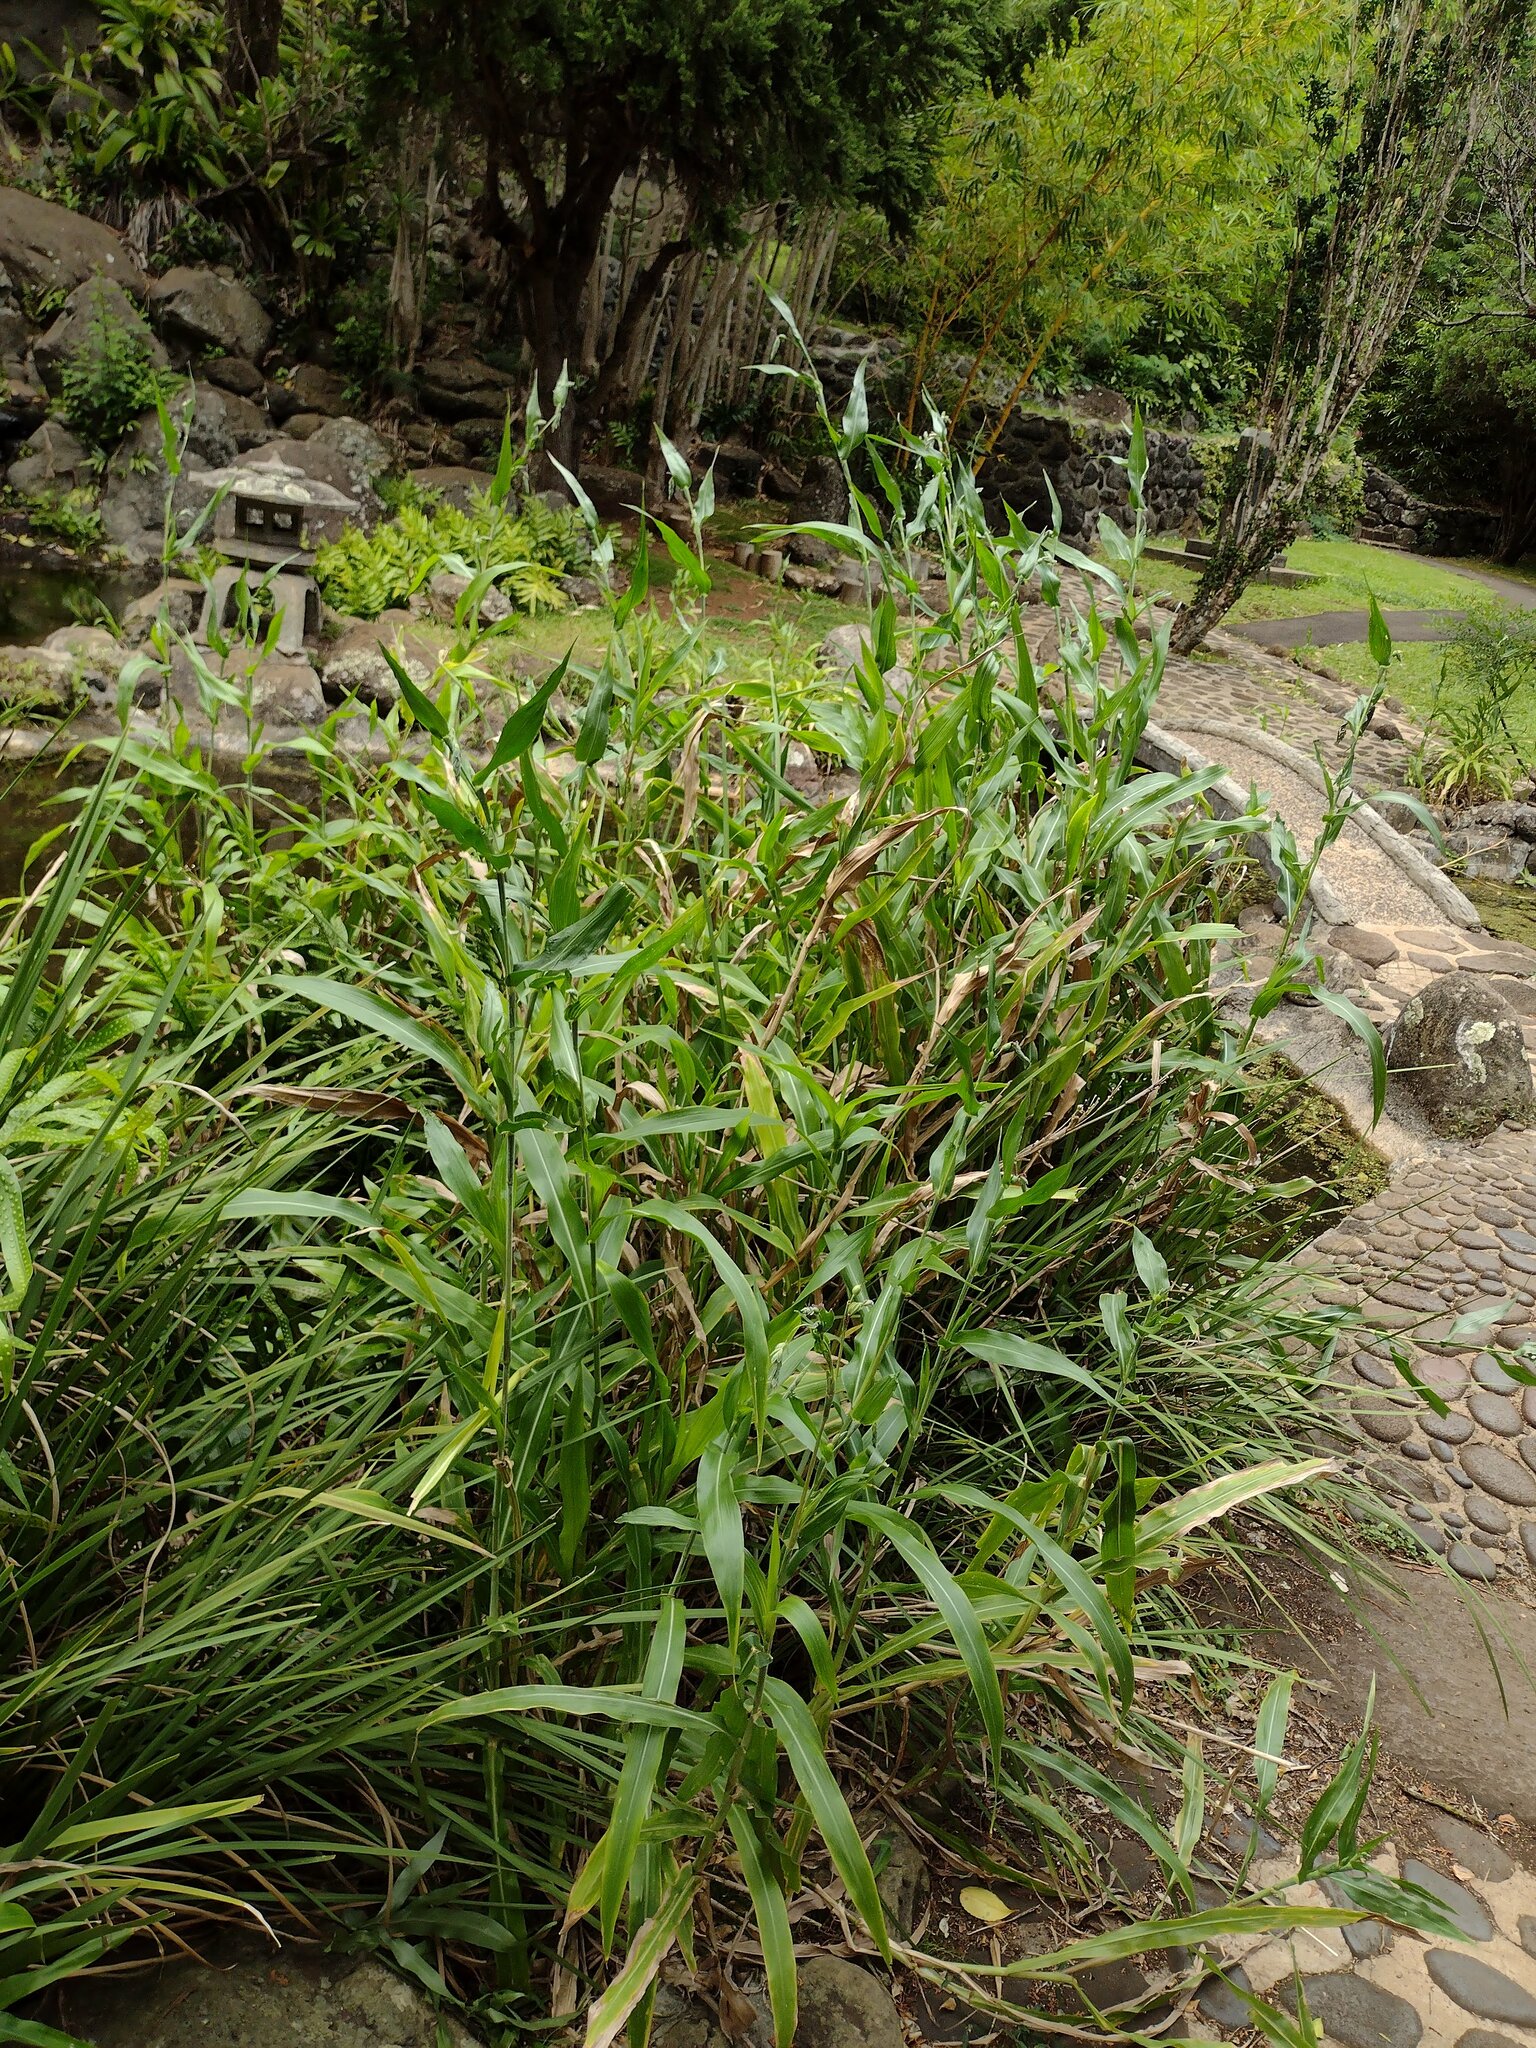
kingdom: Plantae
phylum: Tracheophyta
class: Liliopsida
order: Poales
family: Poaceae
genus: Coix
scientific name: Coix lacryma-jobi
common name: Job's tears
